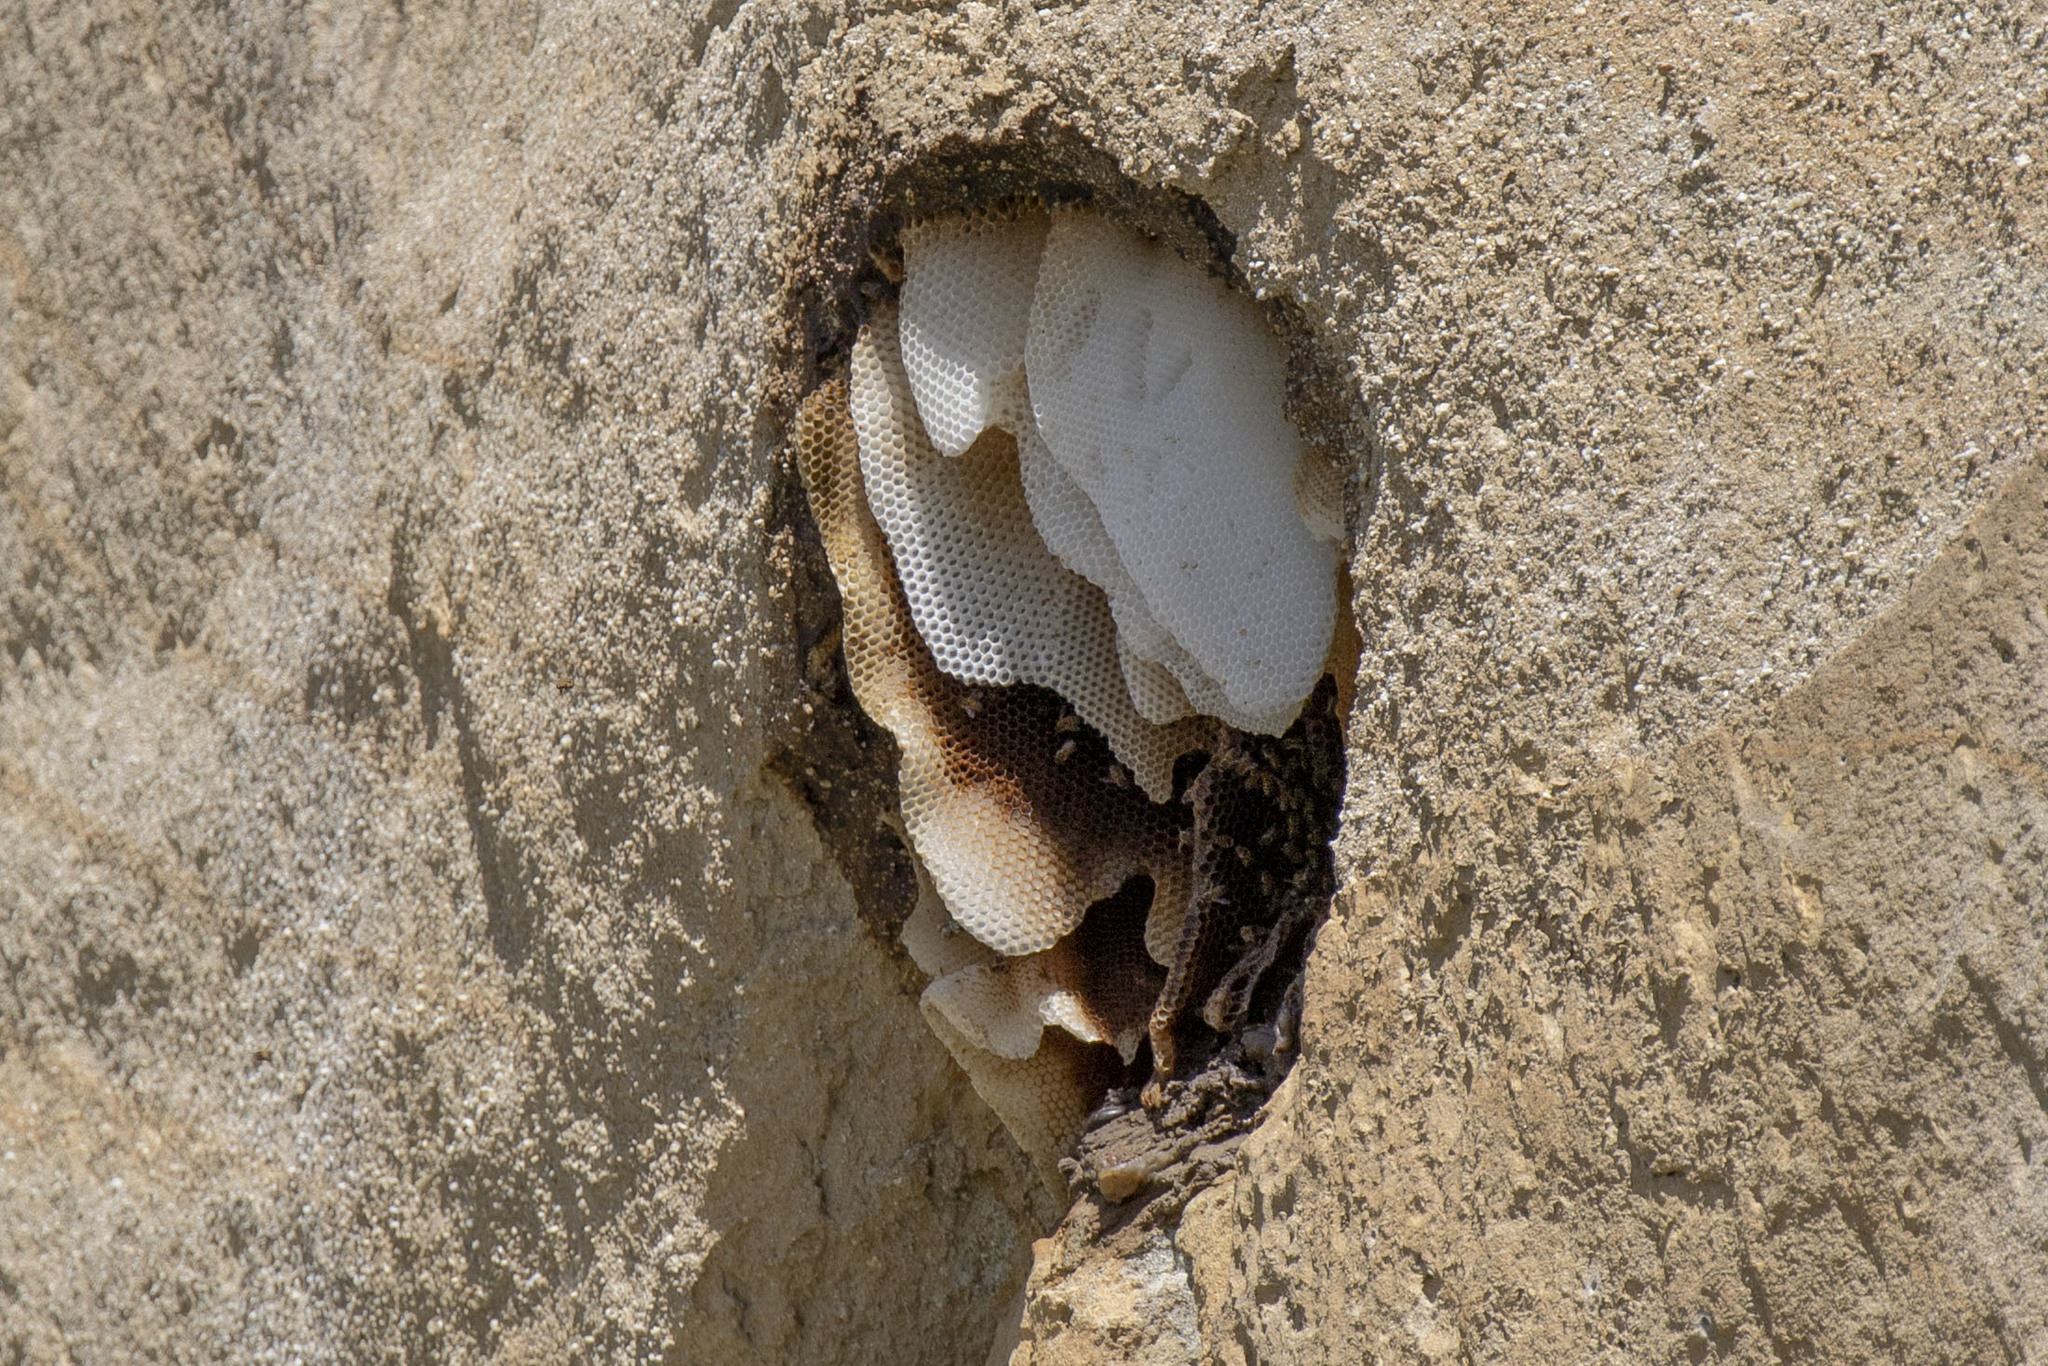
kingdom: Animalia
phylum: Arthropoda
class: Insecta
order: Hymenoptera
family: Apidae
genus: Apis
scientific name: Apis mellifera
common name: Honey bee
